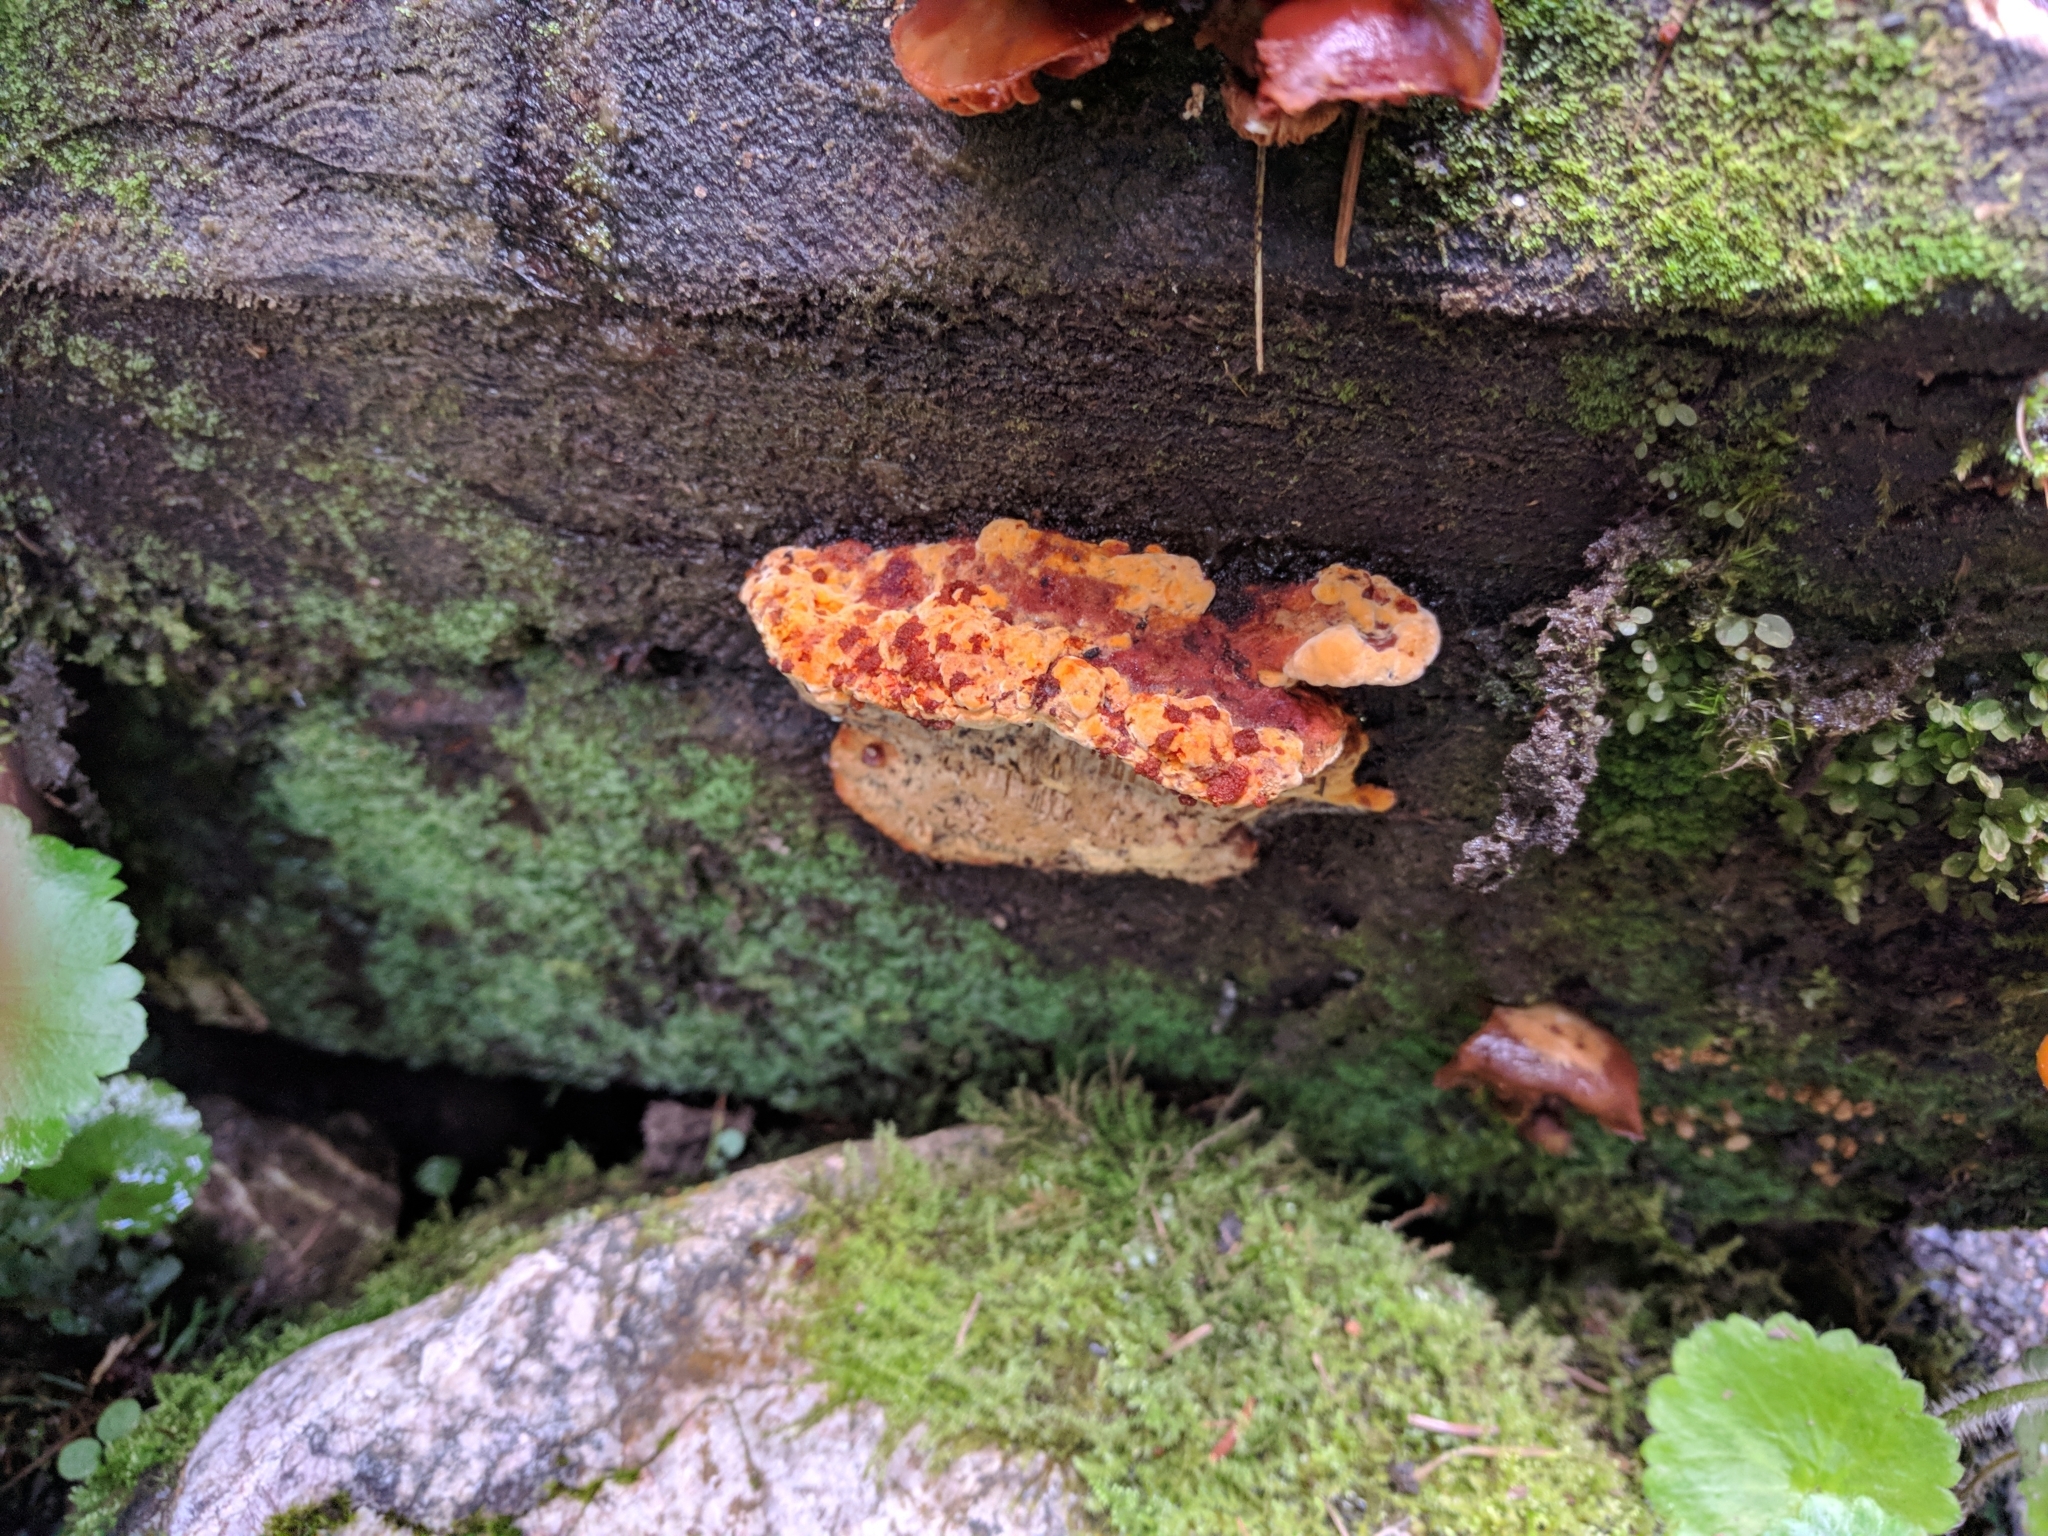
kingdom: Fungi
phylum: Basidiomycota
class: Agaricomycetes
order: Gloeophyllales
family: Gloeophyllaceae
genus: Gloeophyllum
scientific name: Gloeophyllum odoratum
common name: Anise mazegill
